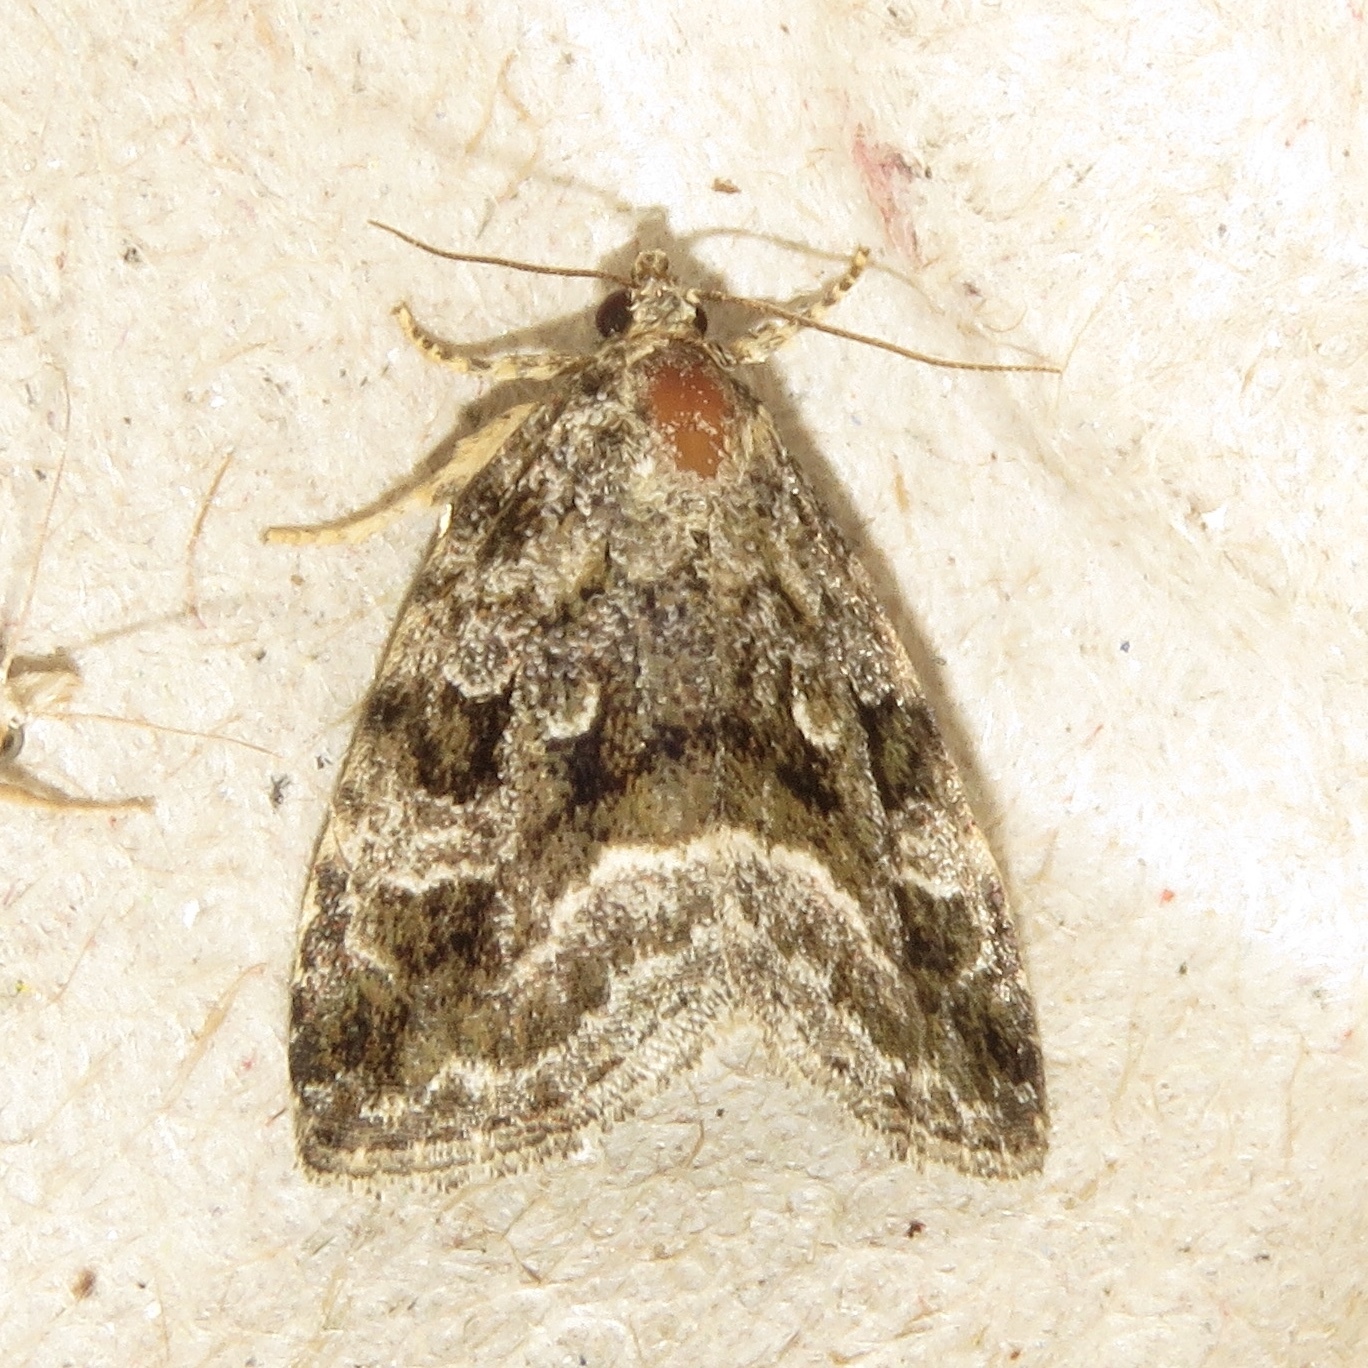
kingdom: Animalia
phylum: Arthropoda
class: Insecta
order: Lepidoptera
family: Noctuidae
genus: Protodeltote
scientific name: Protodeltote muscosula
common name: Large mossy glyph
